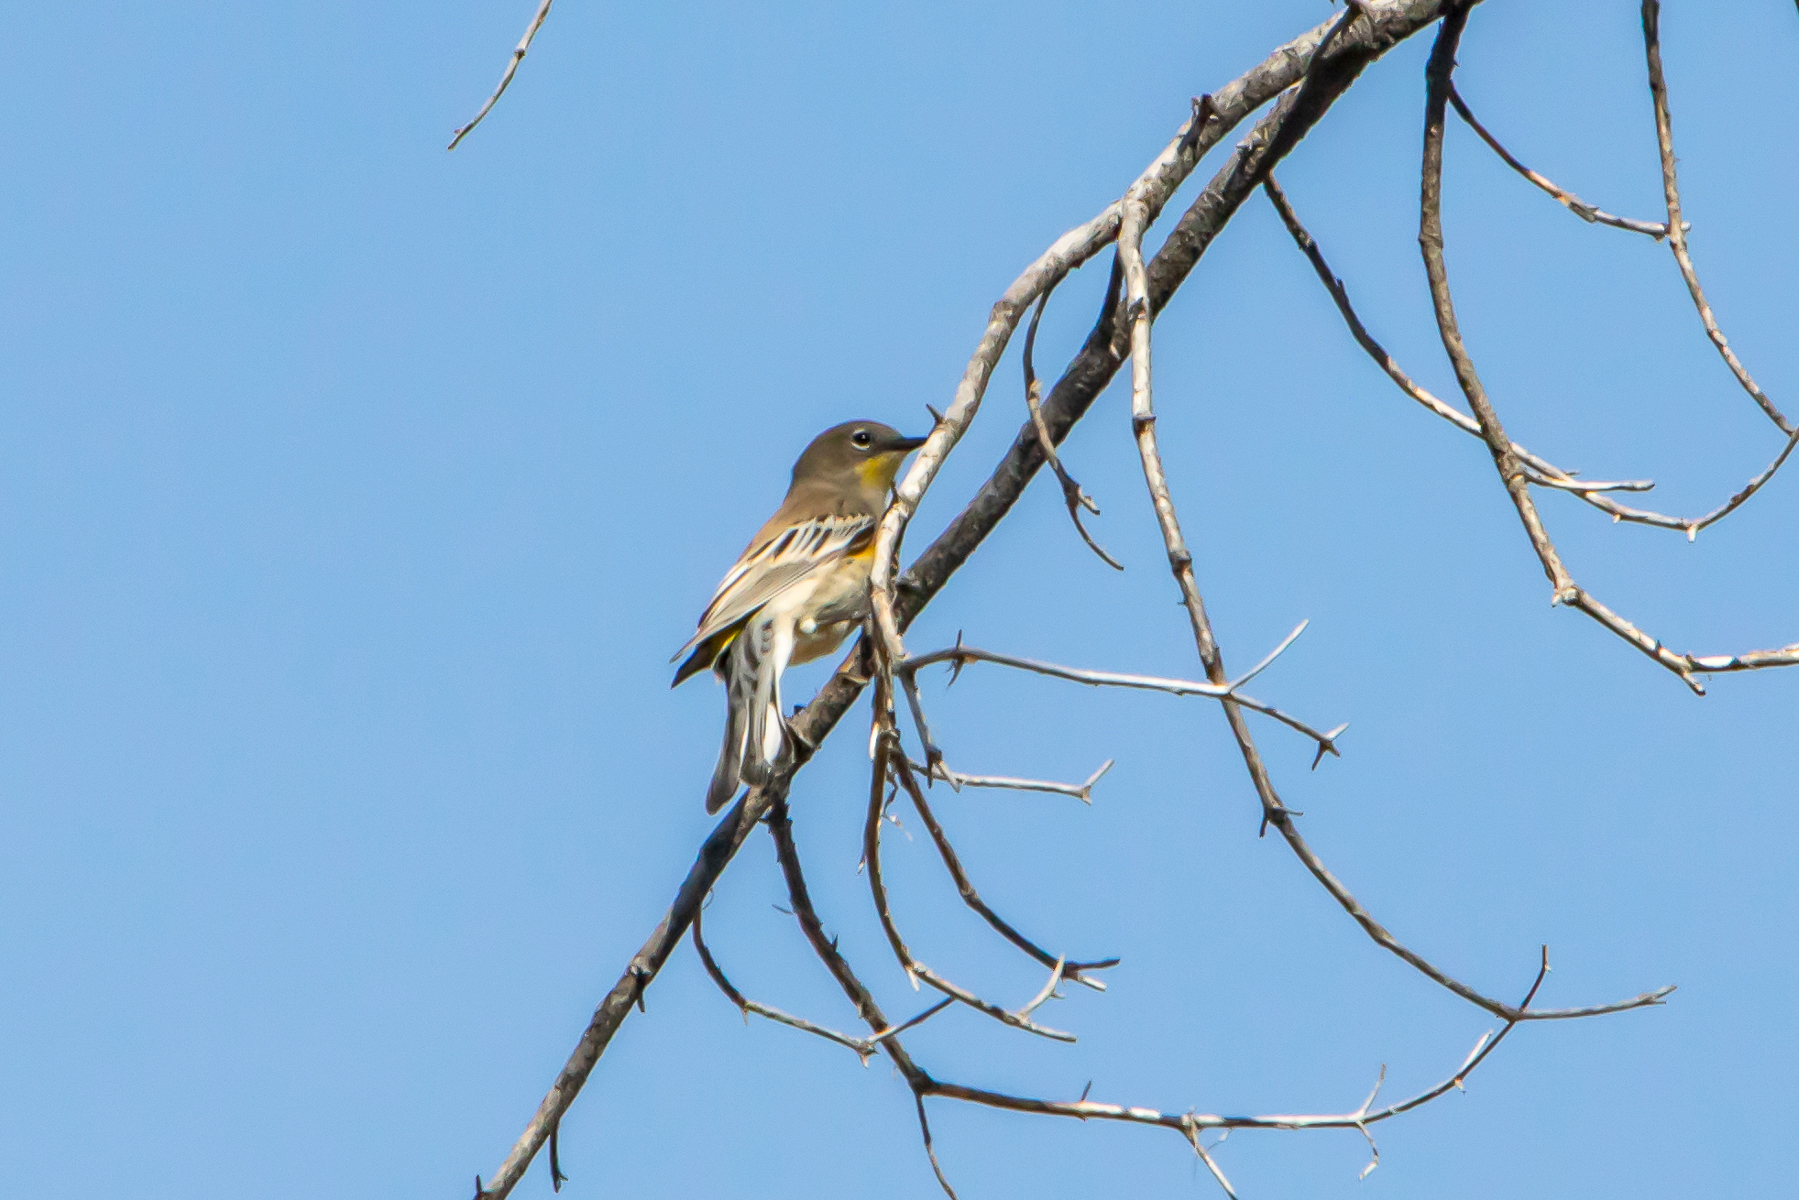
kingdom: Animalia
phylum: Chordata
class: Aves
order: Passeriformes
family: Parulidae
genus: Setophaga
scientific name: Setophaga auduboni
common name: Audubon's warbler
